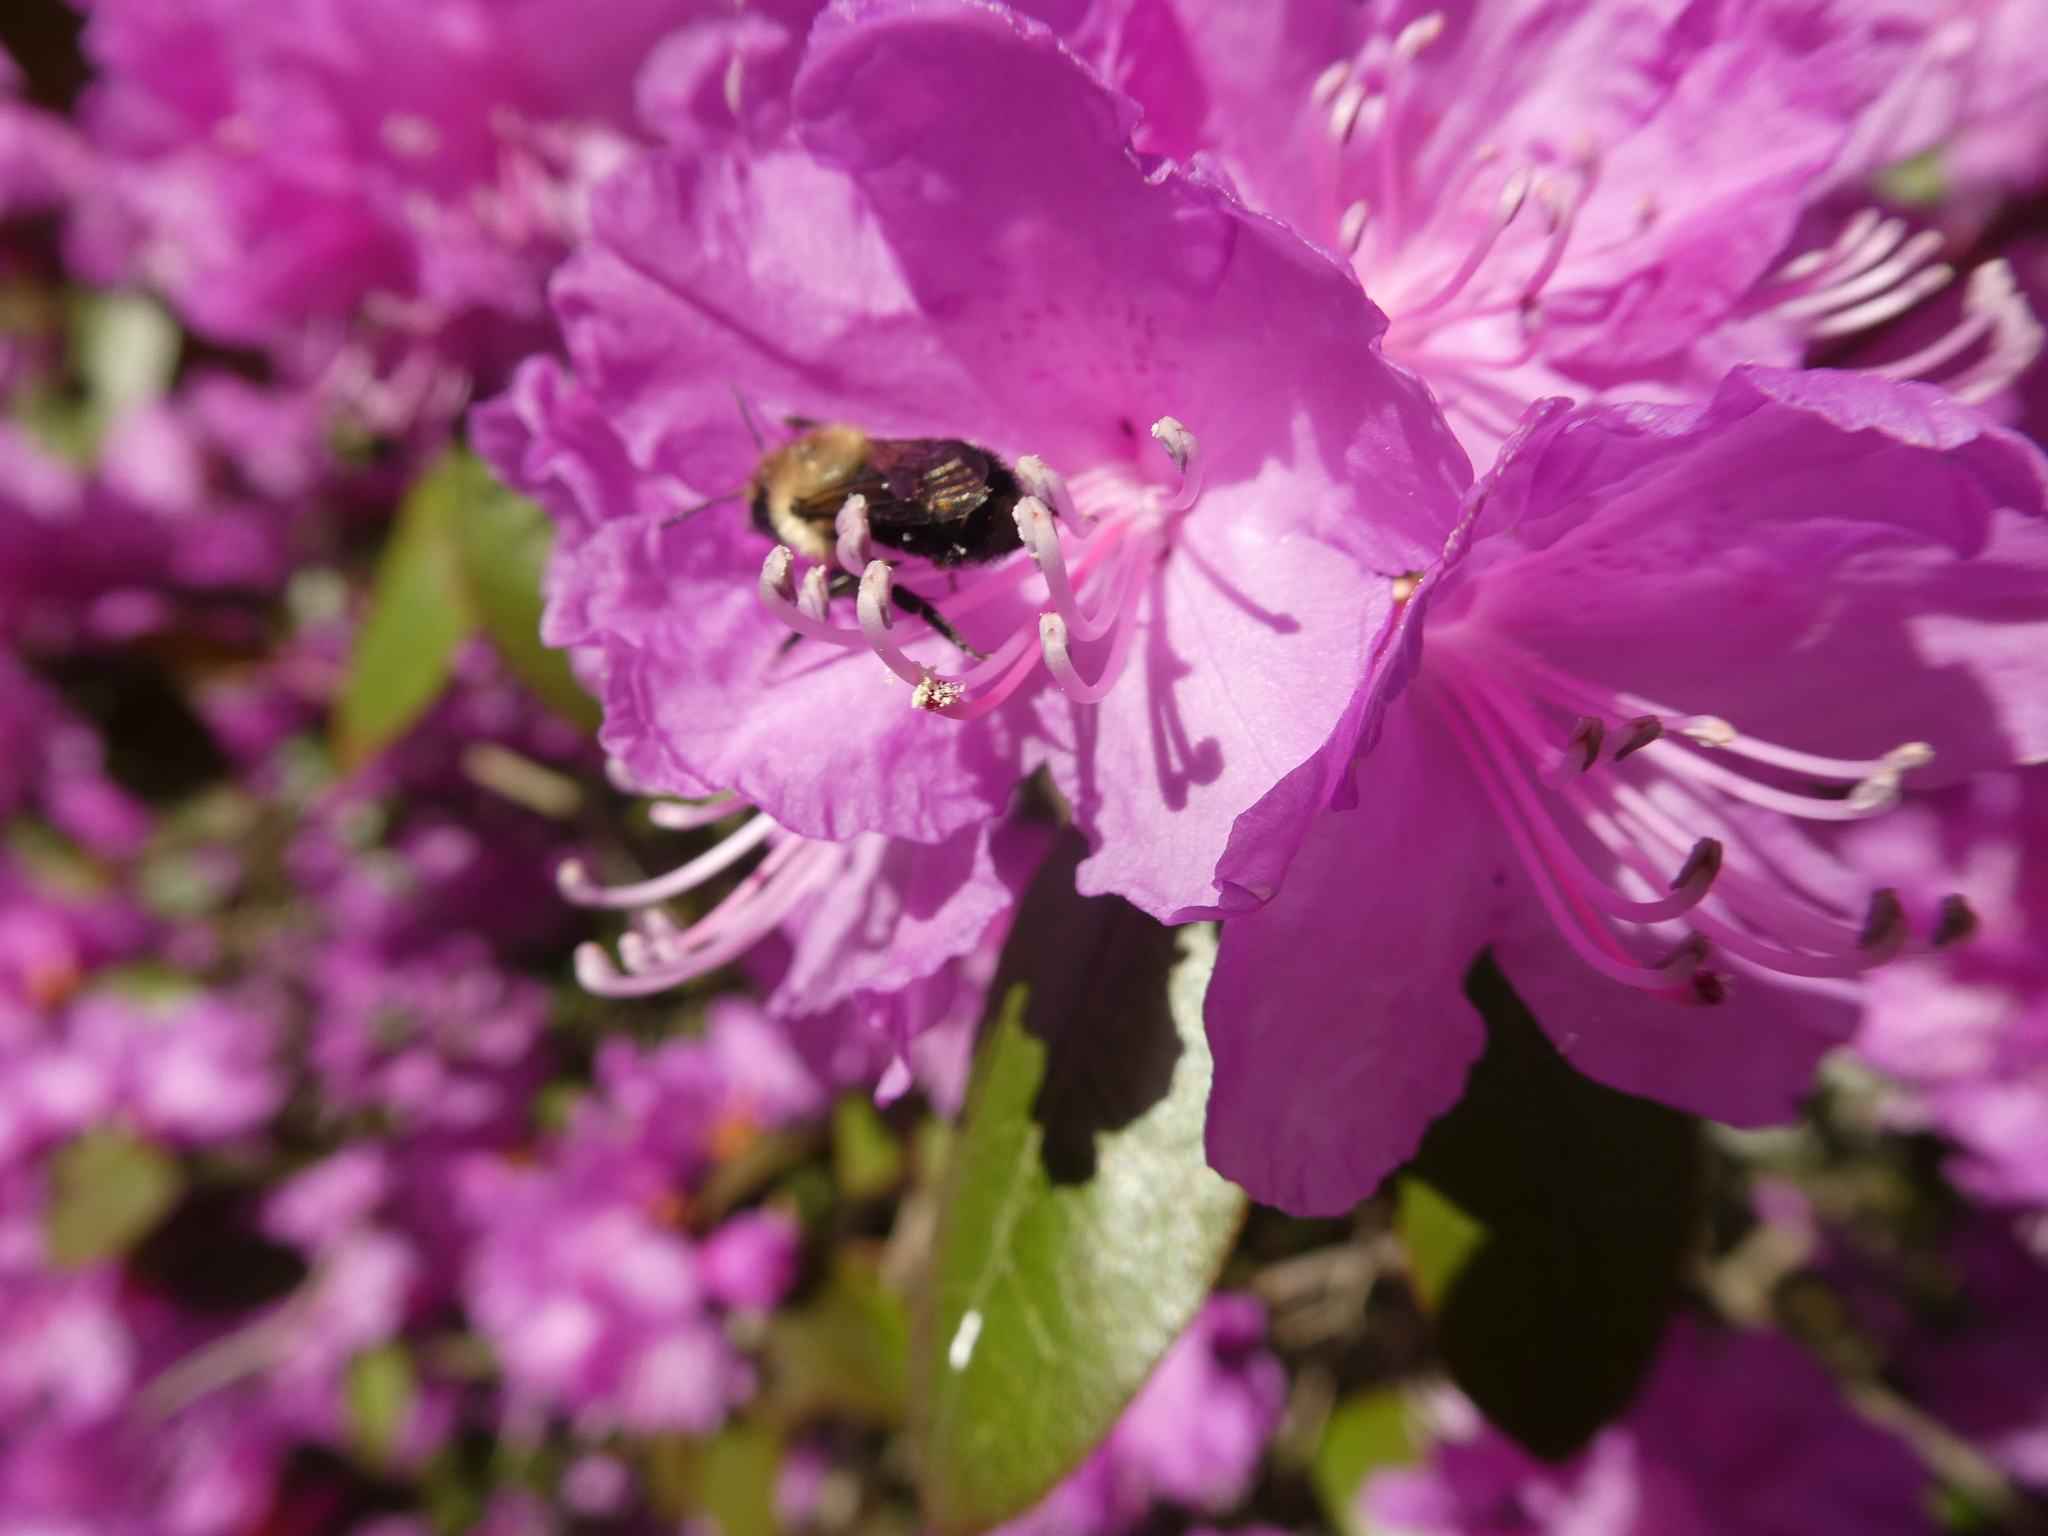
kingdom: Animalia
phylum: Arthropoda
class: Insecta
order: Hymenoptera
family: Megachilidae
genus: Osmia
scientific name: Osmia bucephala
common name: Bufflehead mason bee
